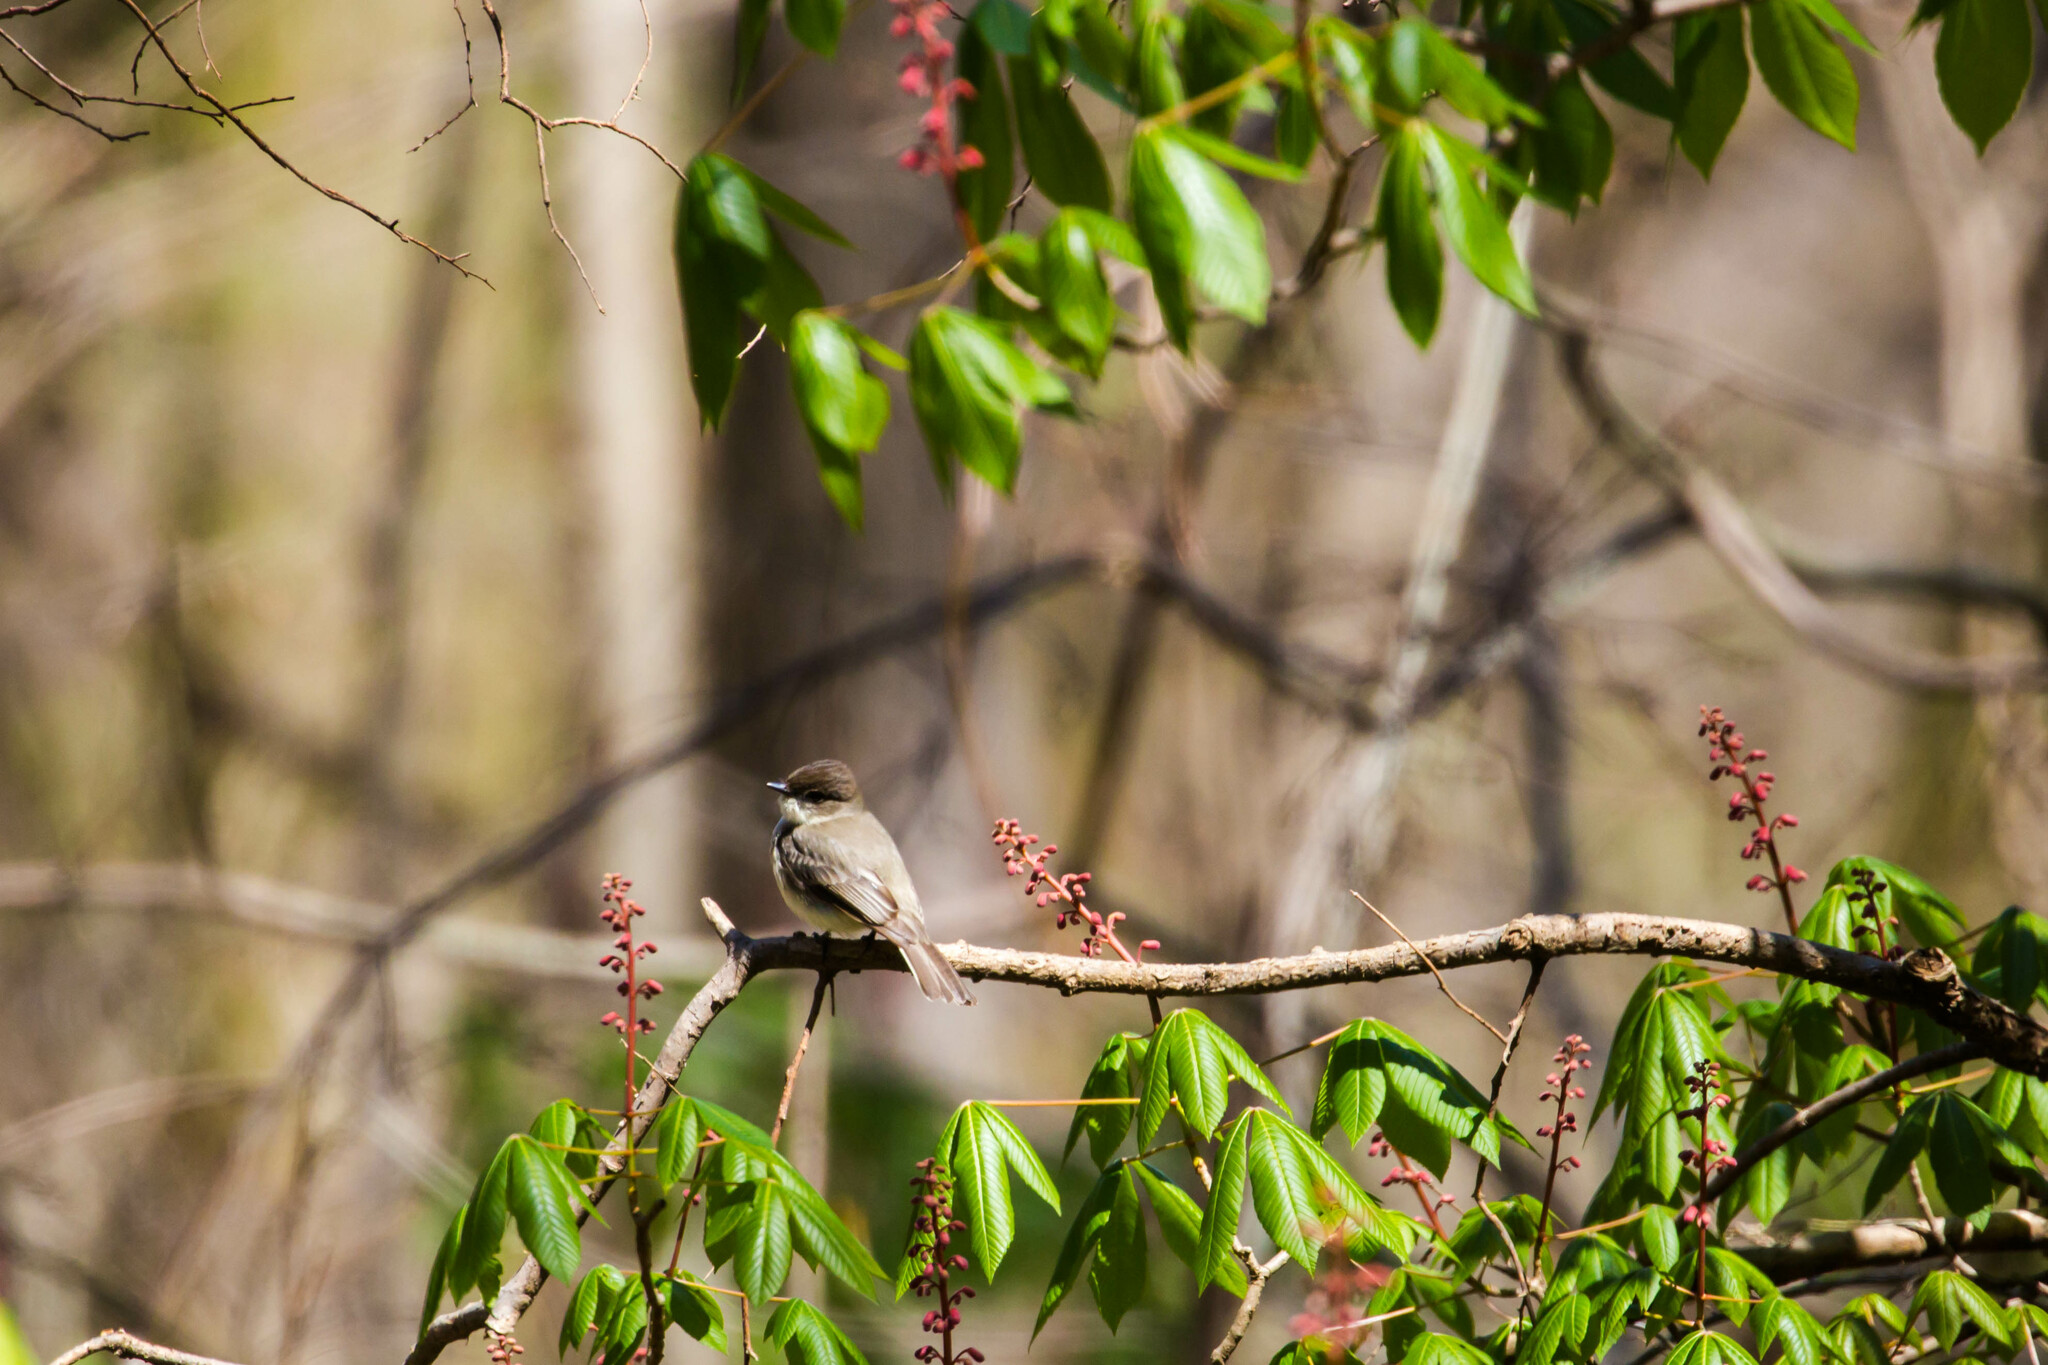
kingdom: Animalia
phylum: Chordata
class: Aves
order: Passeriformes
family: Tyrannidae
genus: Sayornis
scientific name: Sayornis phoebe
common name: Eastern phoebe
